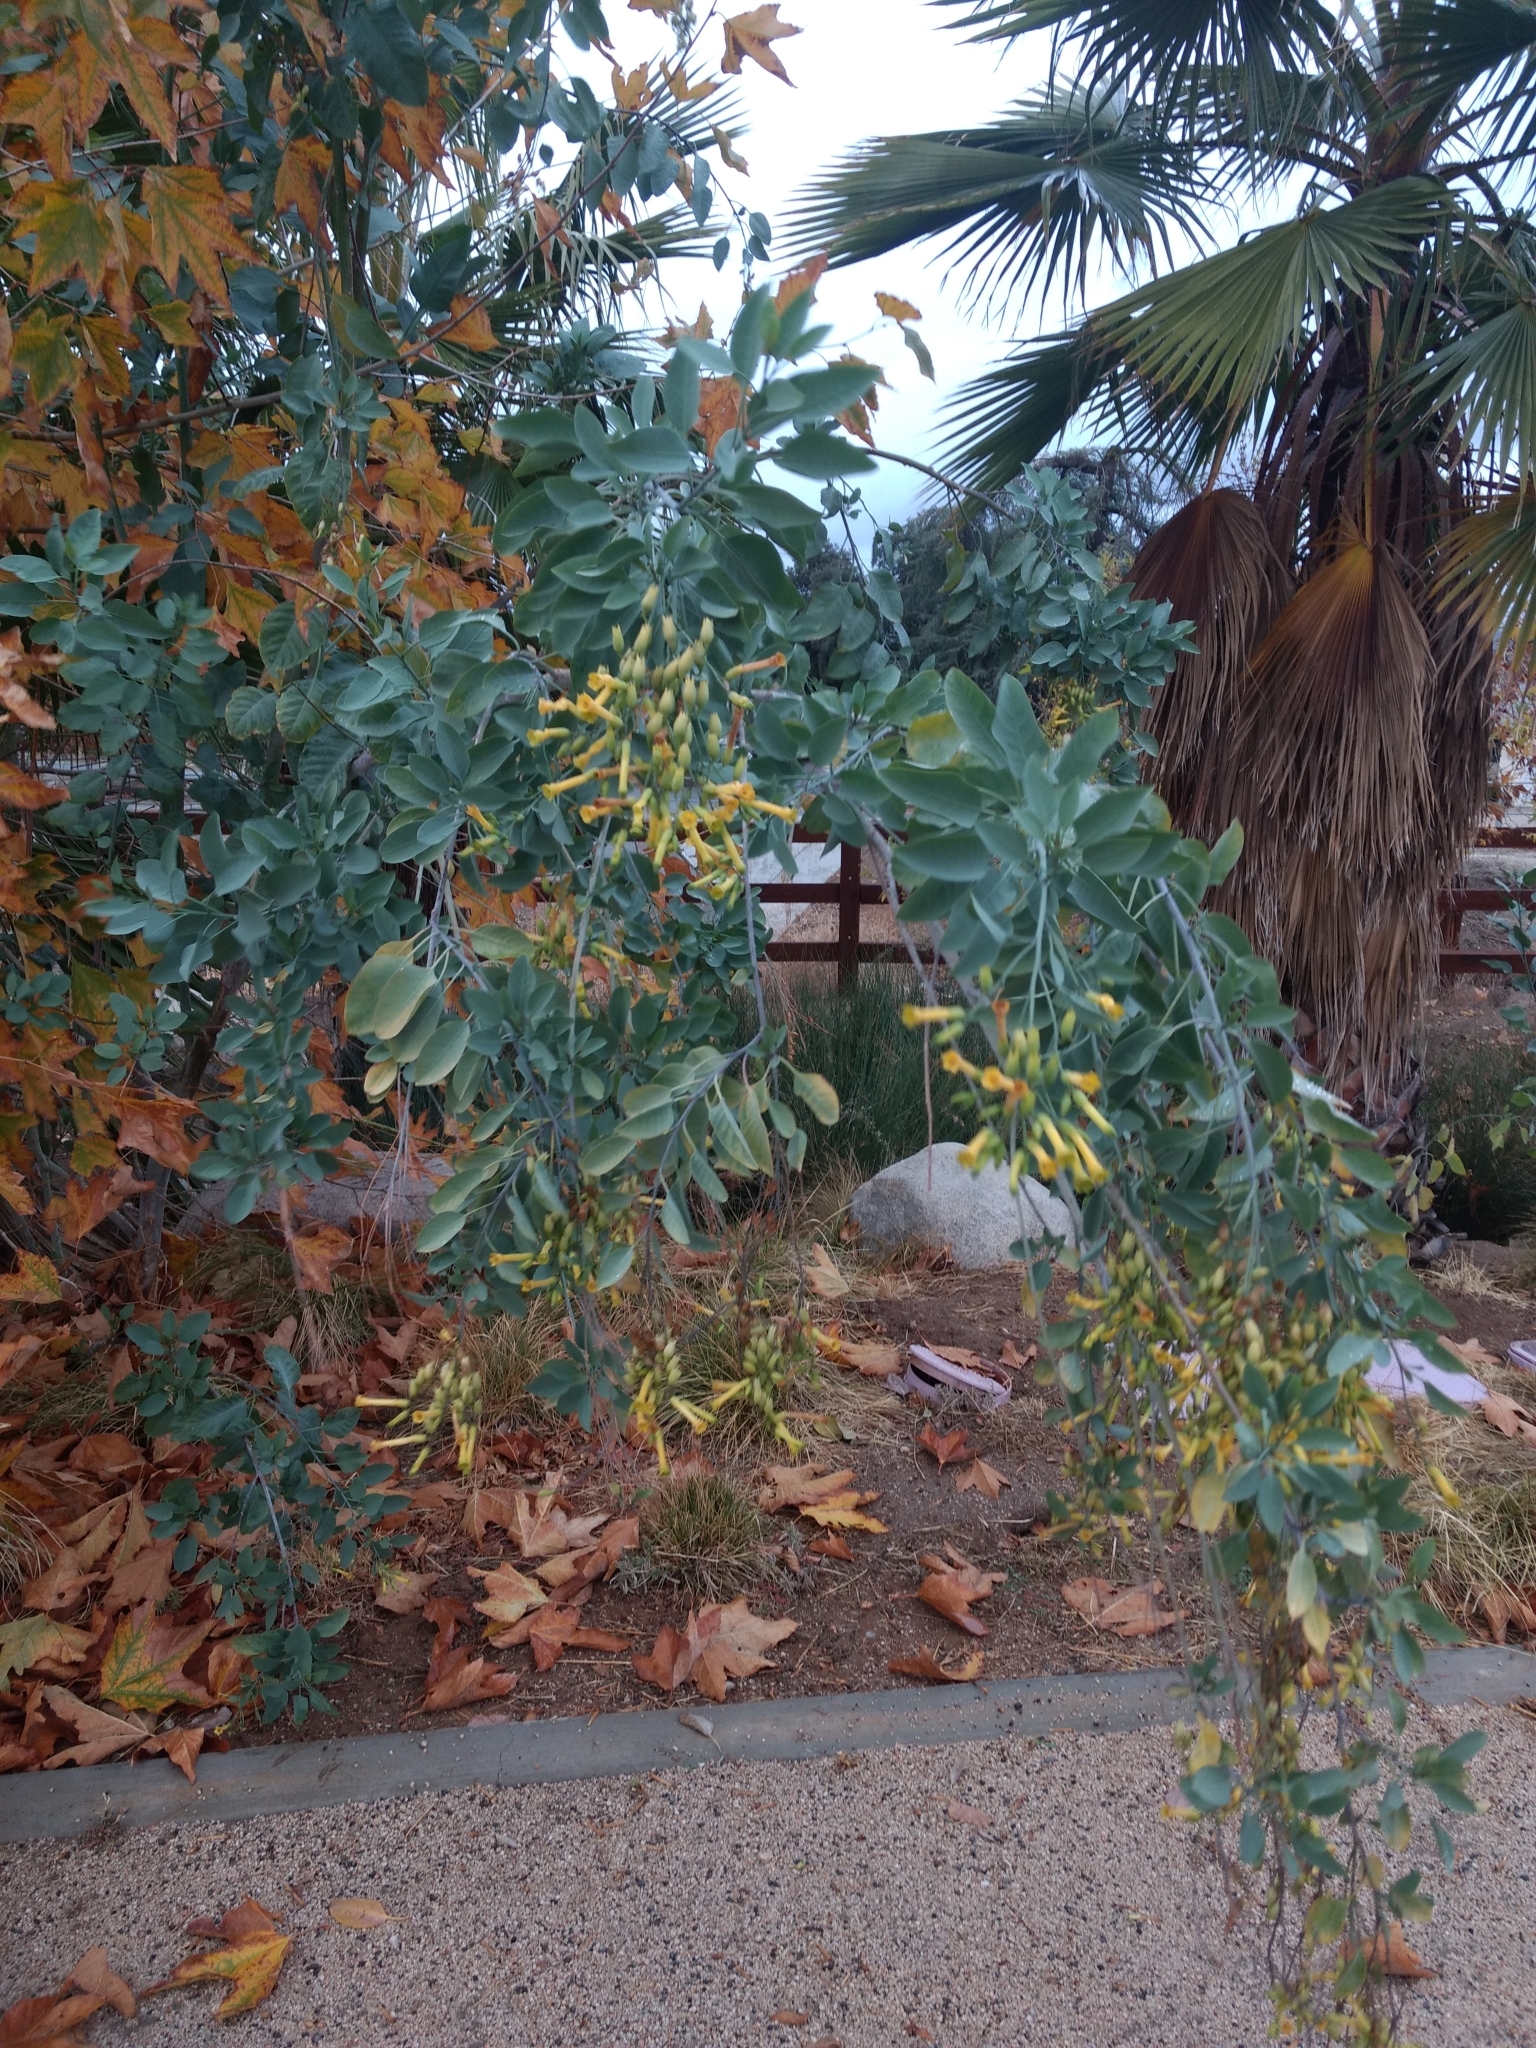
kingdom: Plantae
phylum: Tracheophyta
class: Magnoliopsida
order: Solanales
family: Solanaceae
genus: Nicotiana
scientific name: Nicotiana glauca
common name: Tree tobacco
